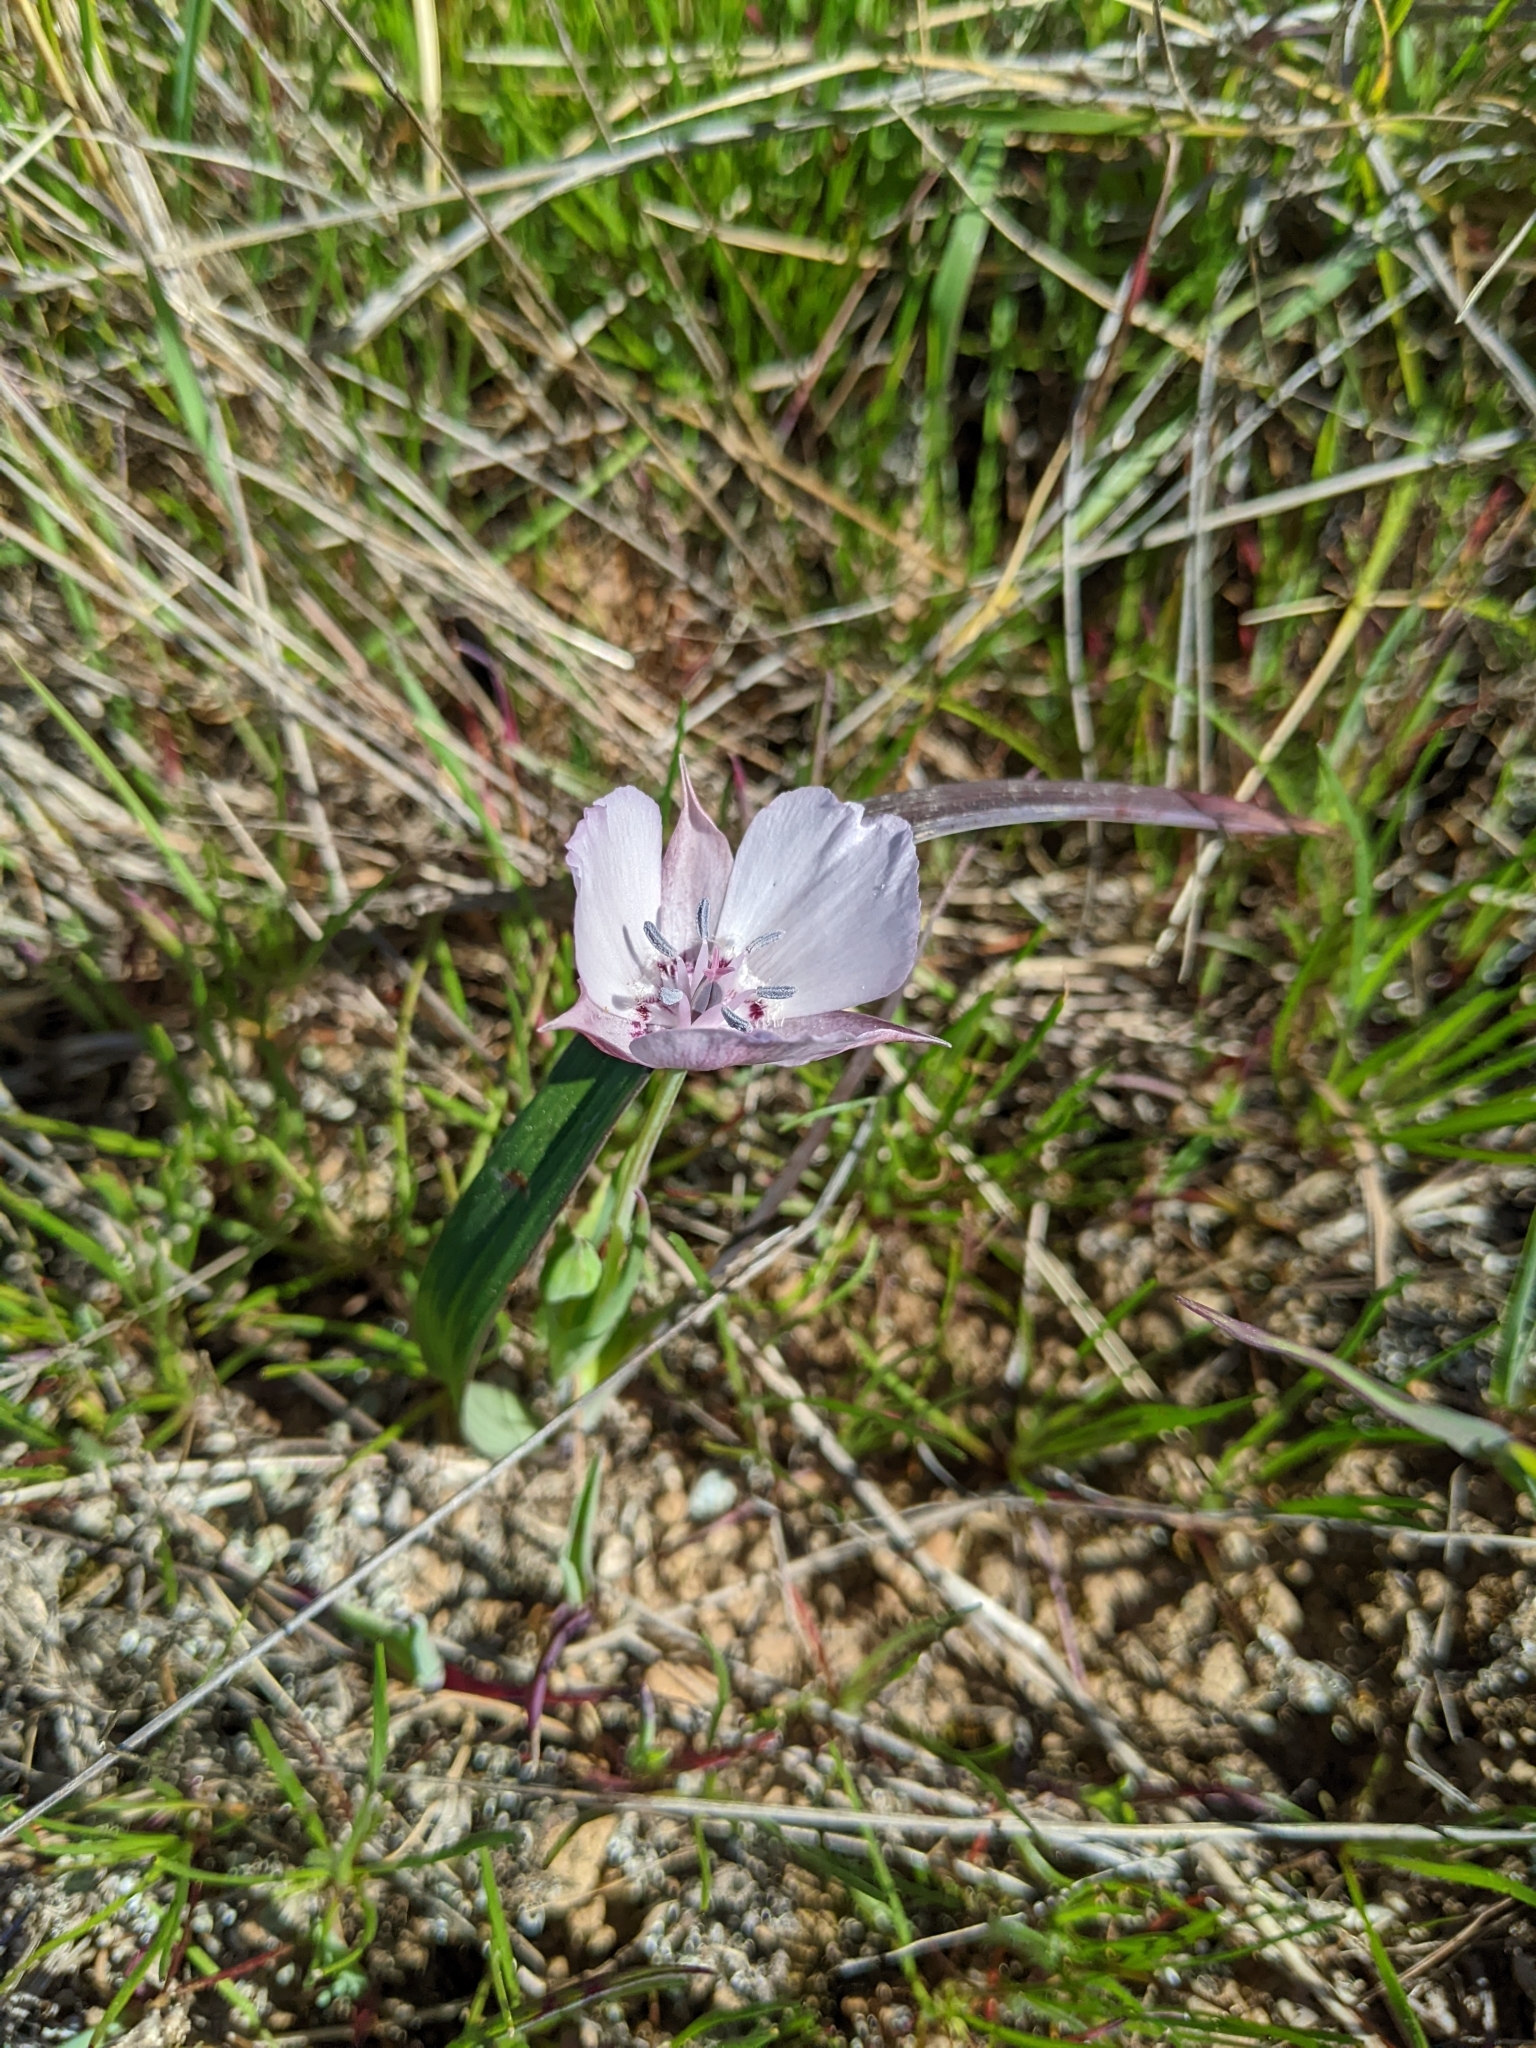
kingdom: Plantae
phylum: Tracheophyta
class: Liliopsida
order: Liliales
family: Liliaceae
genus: Calochortus
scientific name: Calochortus umbellatus
